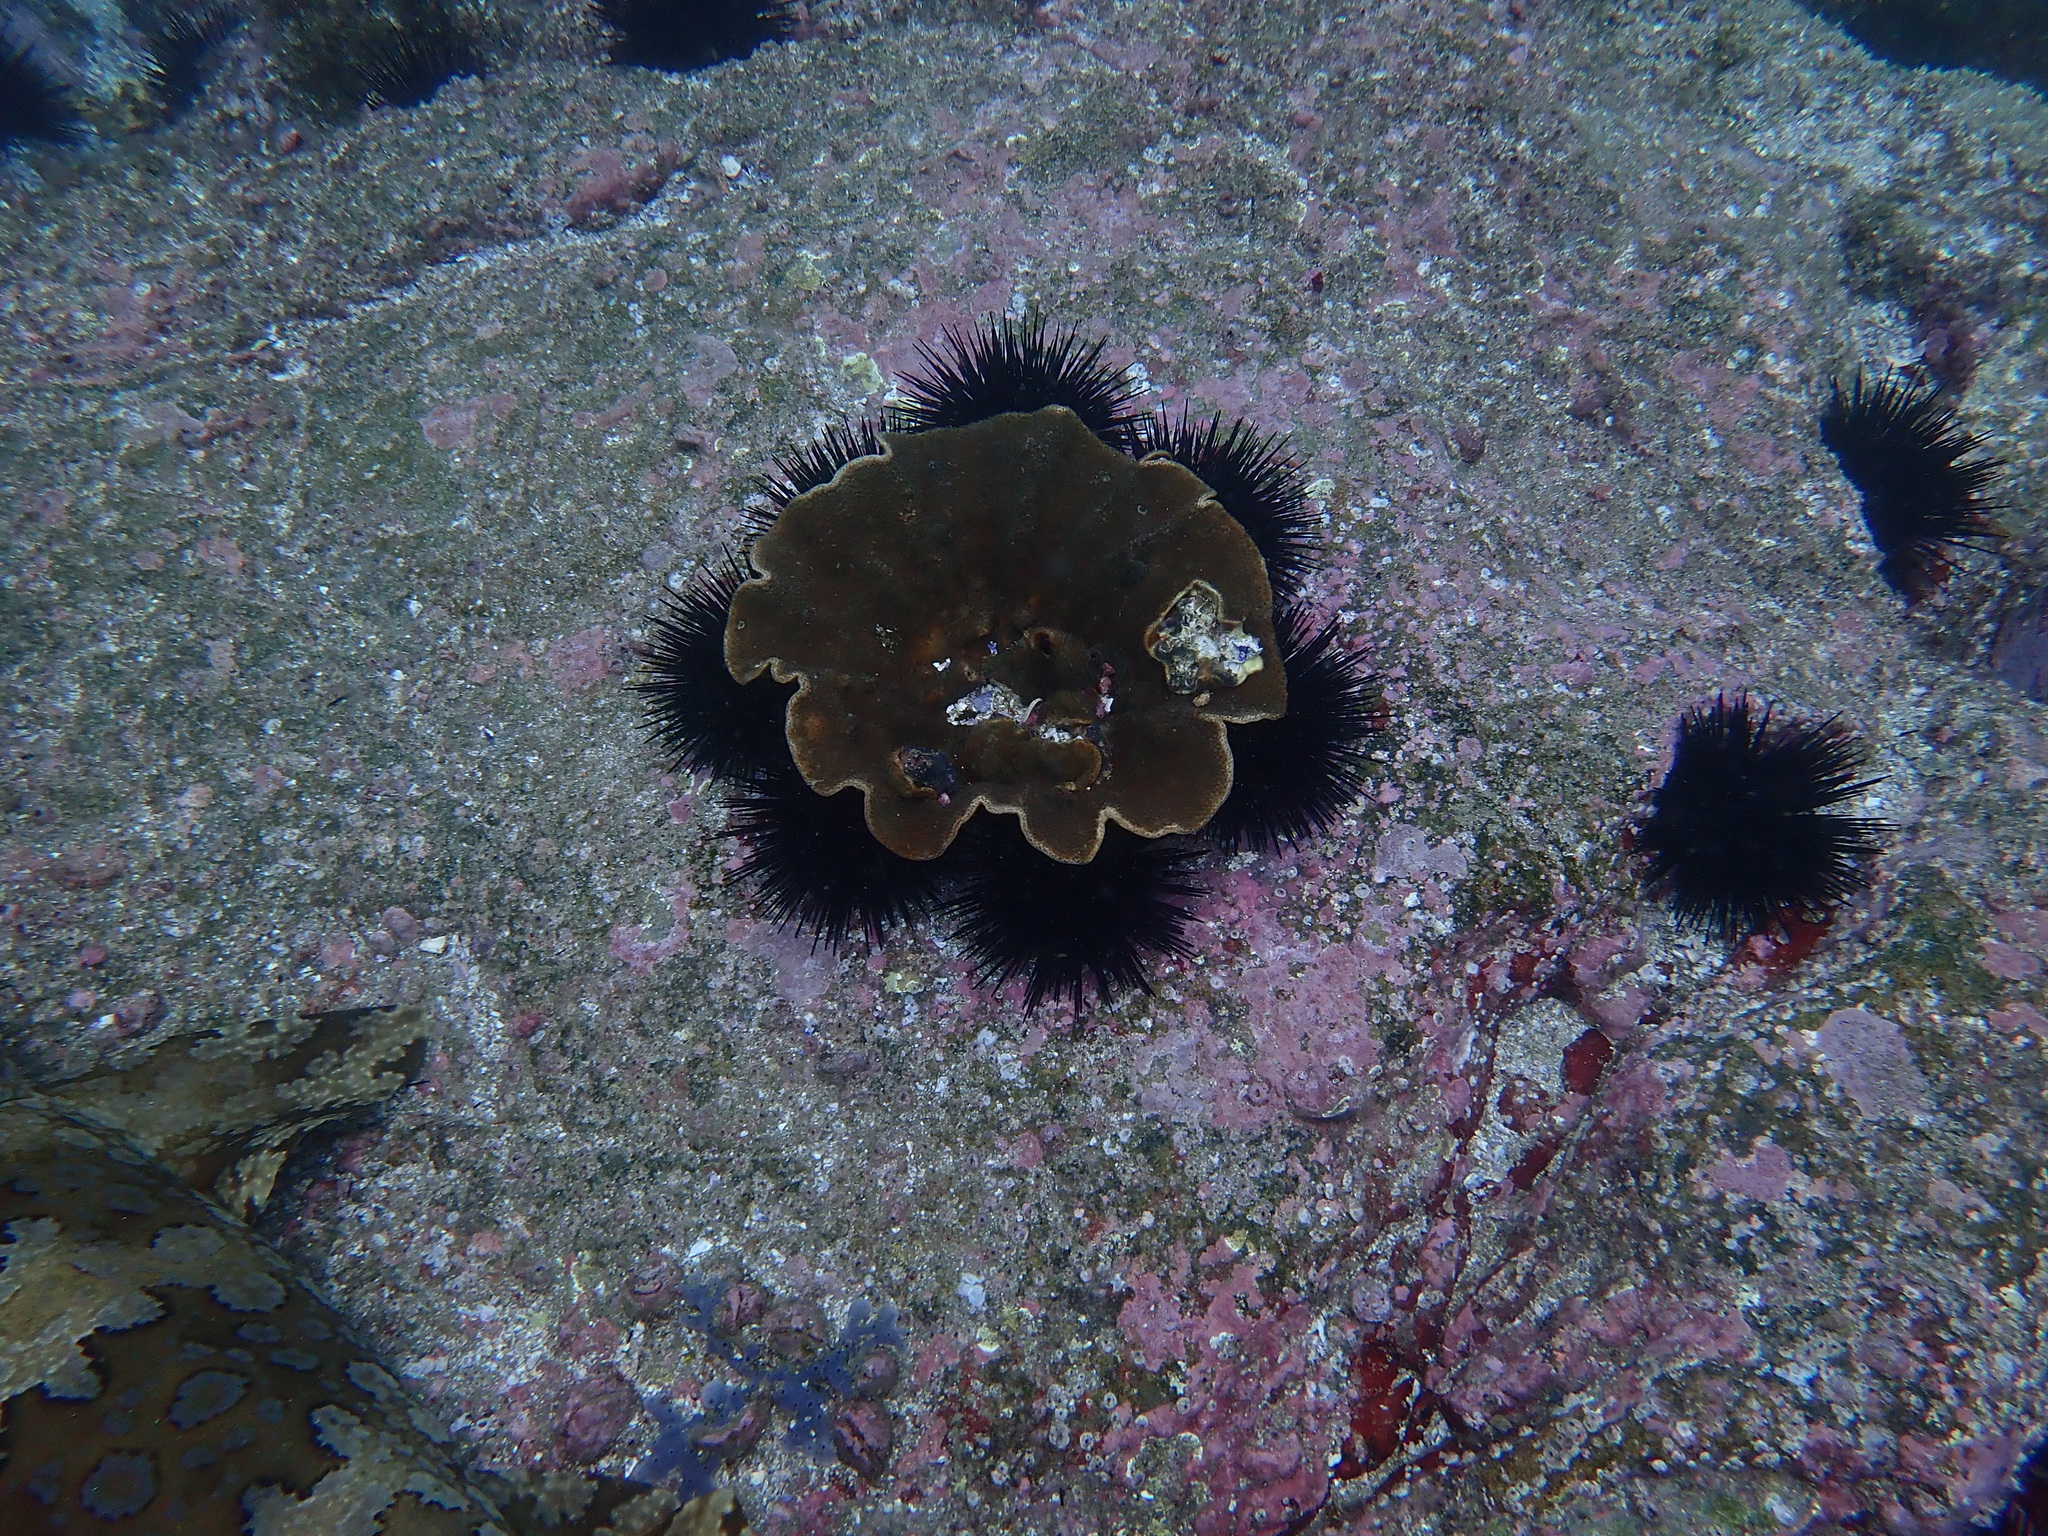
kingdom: Animalia
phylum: Echinodermata
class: Echinoidea
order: Diadematoida
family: Diadematidae
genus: Centrostephanus
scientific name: Centrostephanus rodgersii
